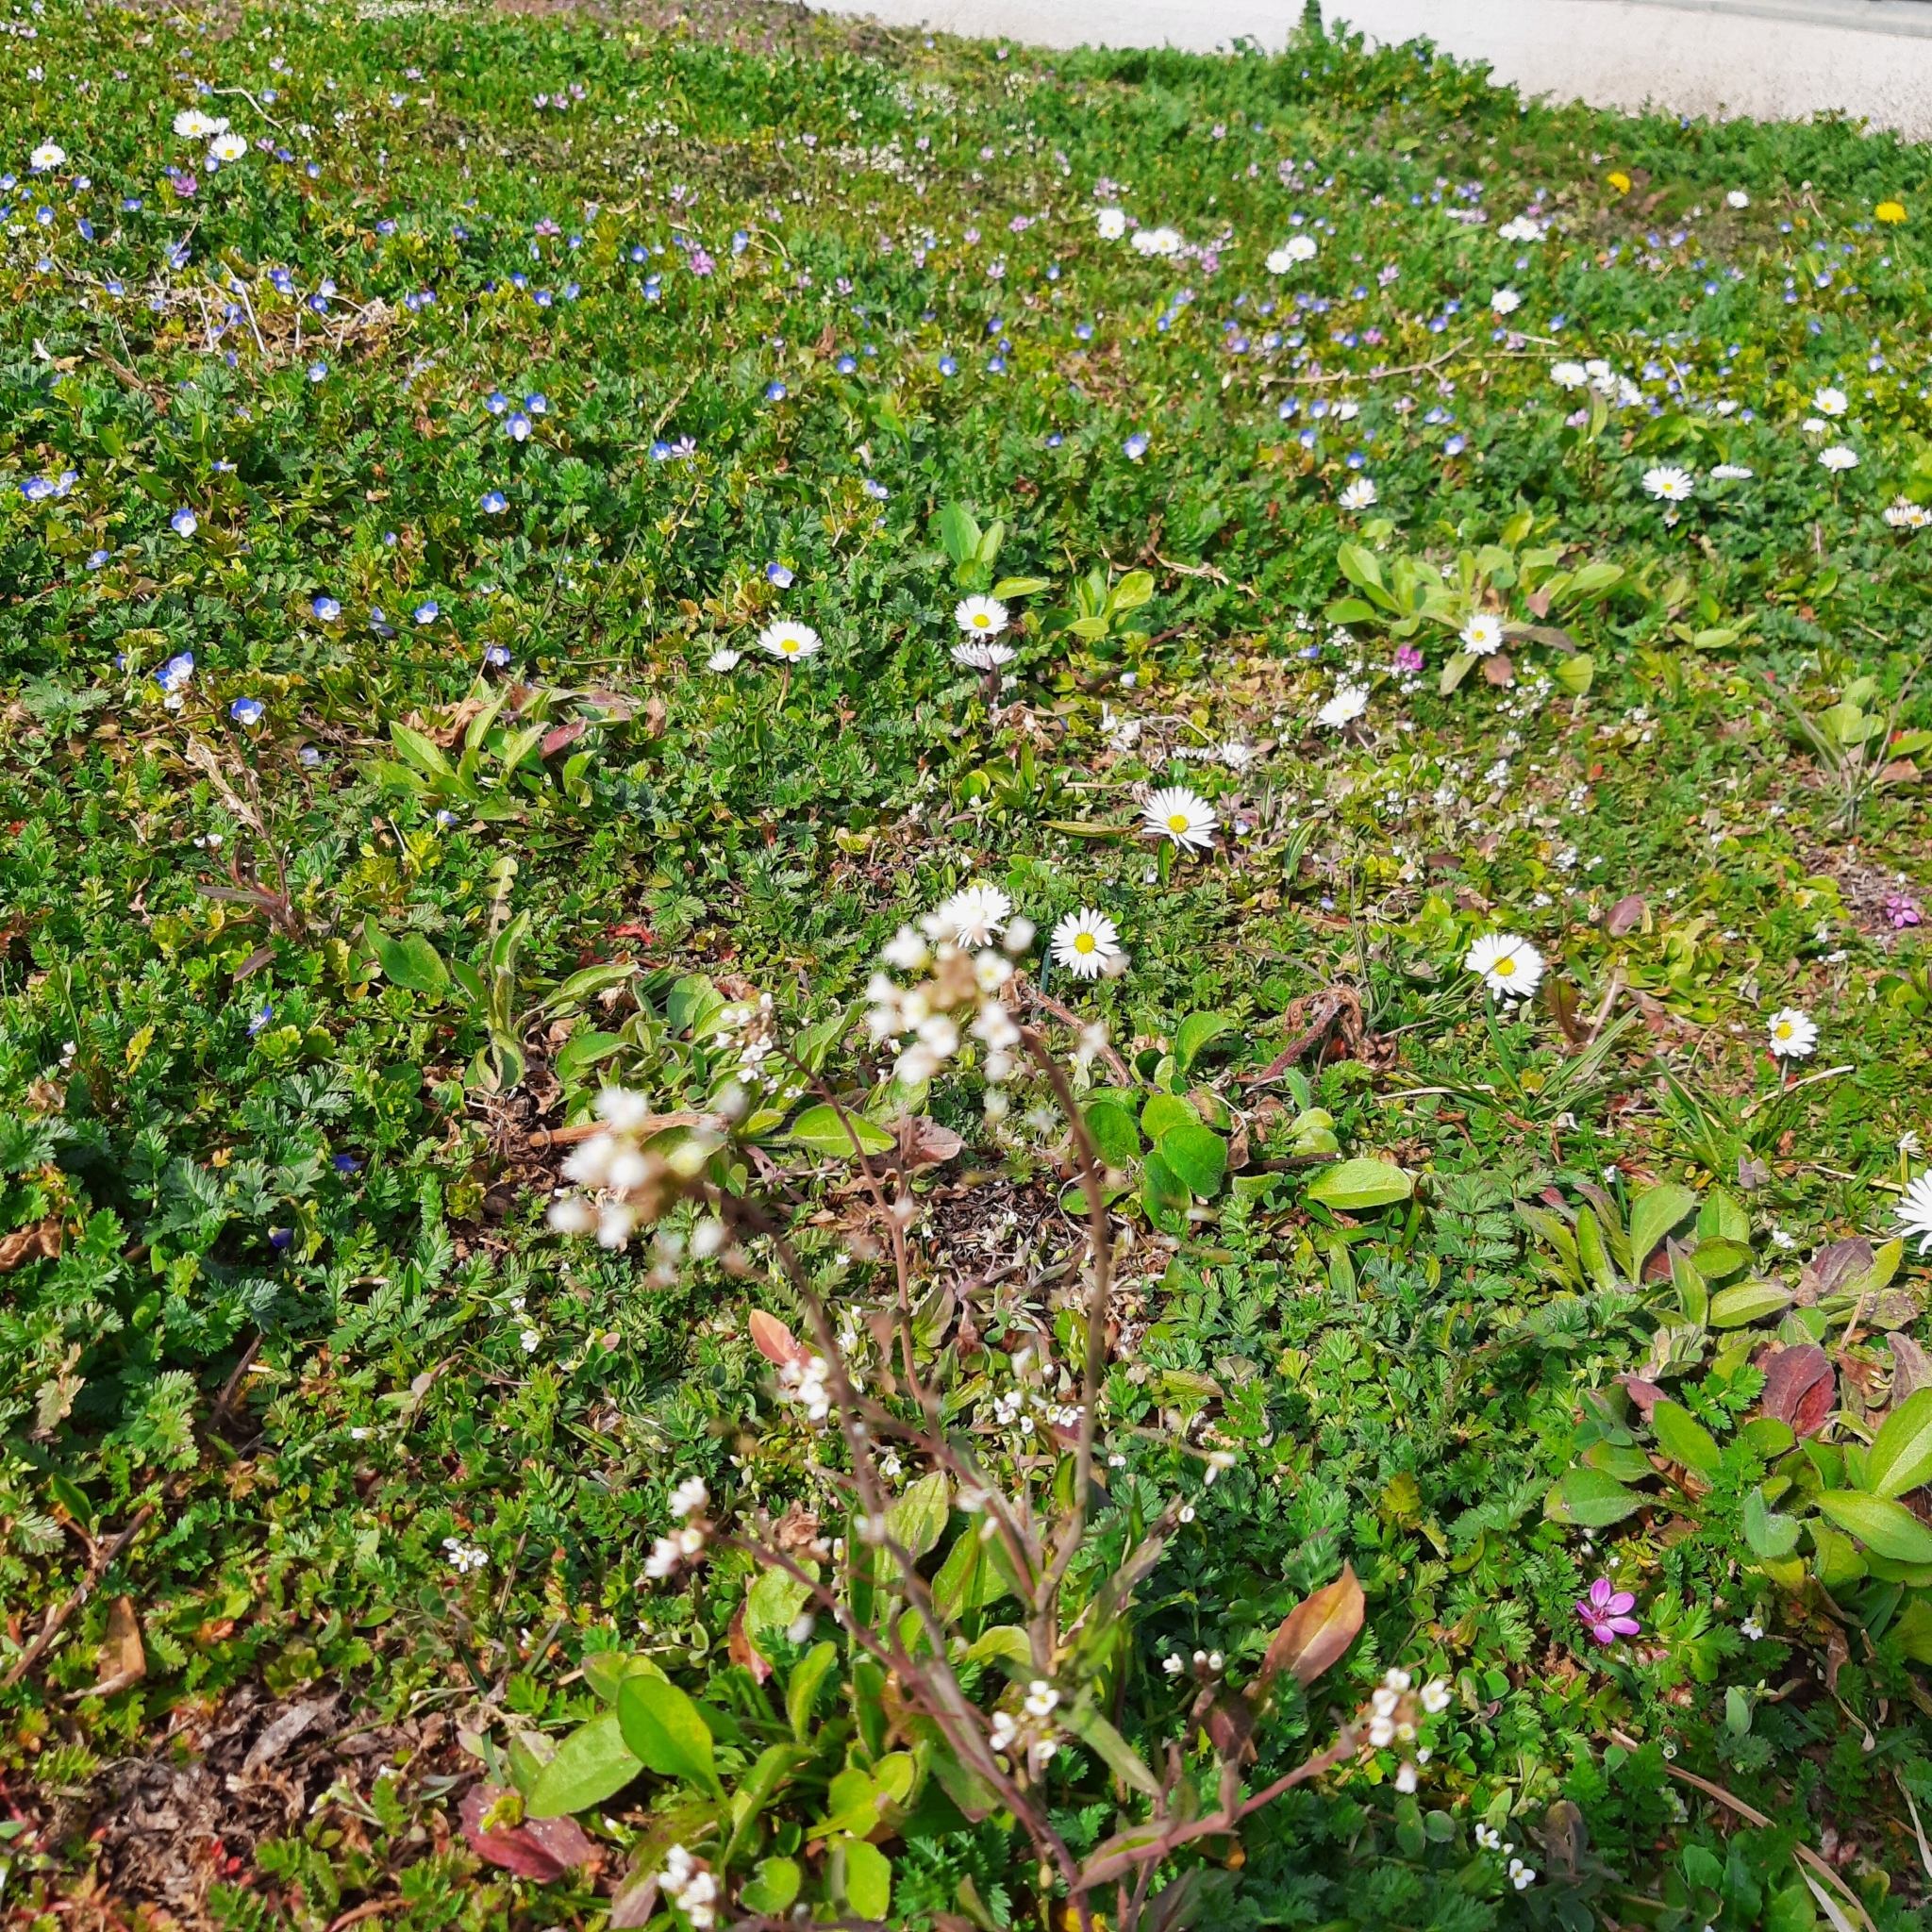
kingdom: Plantae
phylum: Tracheophyta
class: Magnoliopsida
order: Asterales
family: Asteraceae
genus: Bellis
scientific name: Bellis perennis
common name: Lawndaisy
